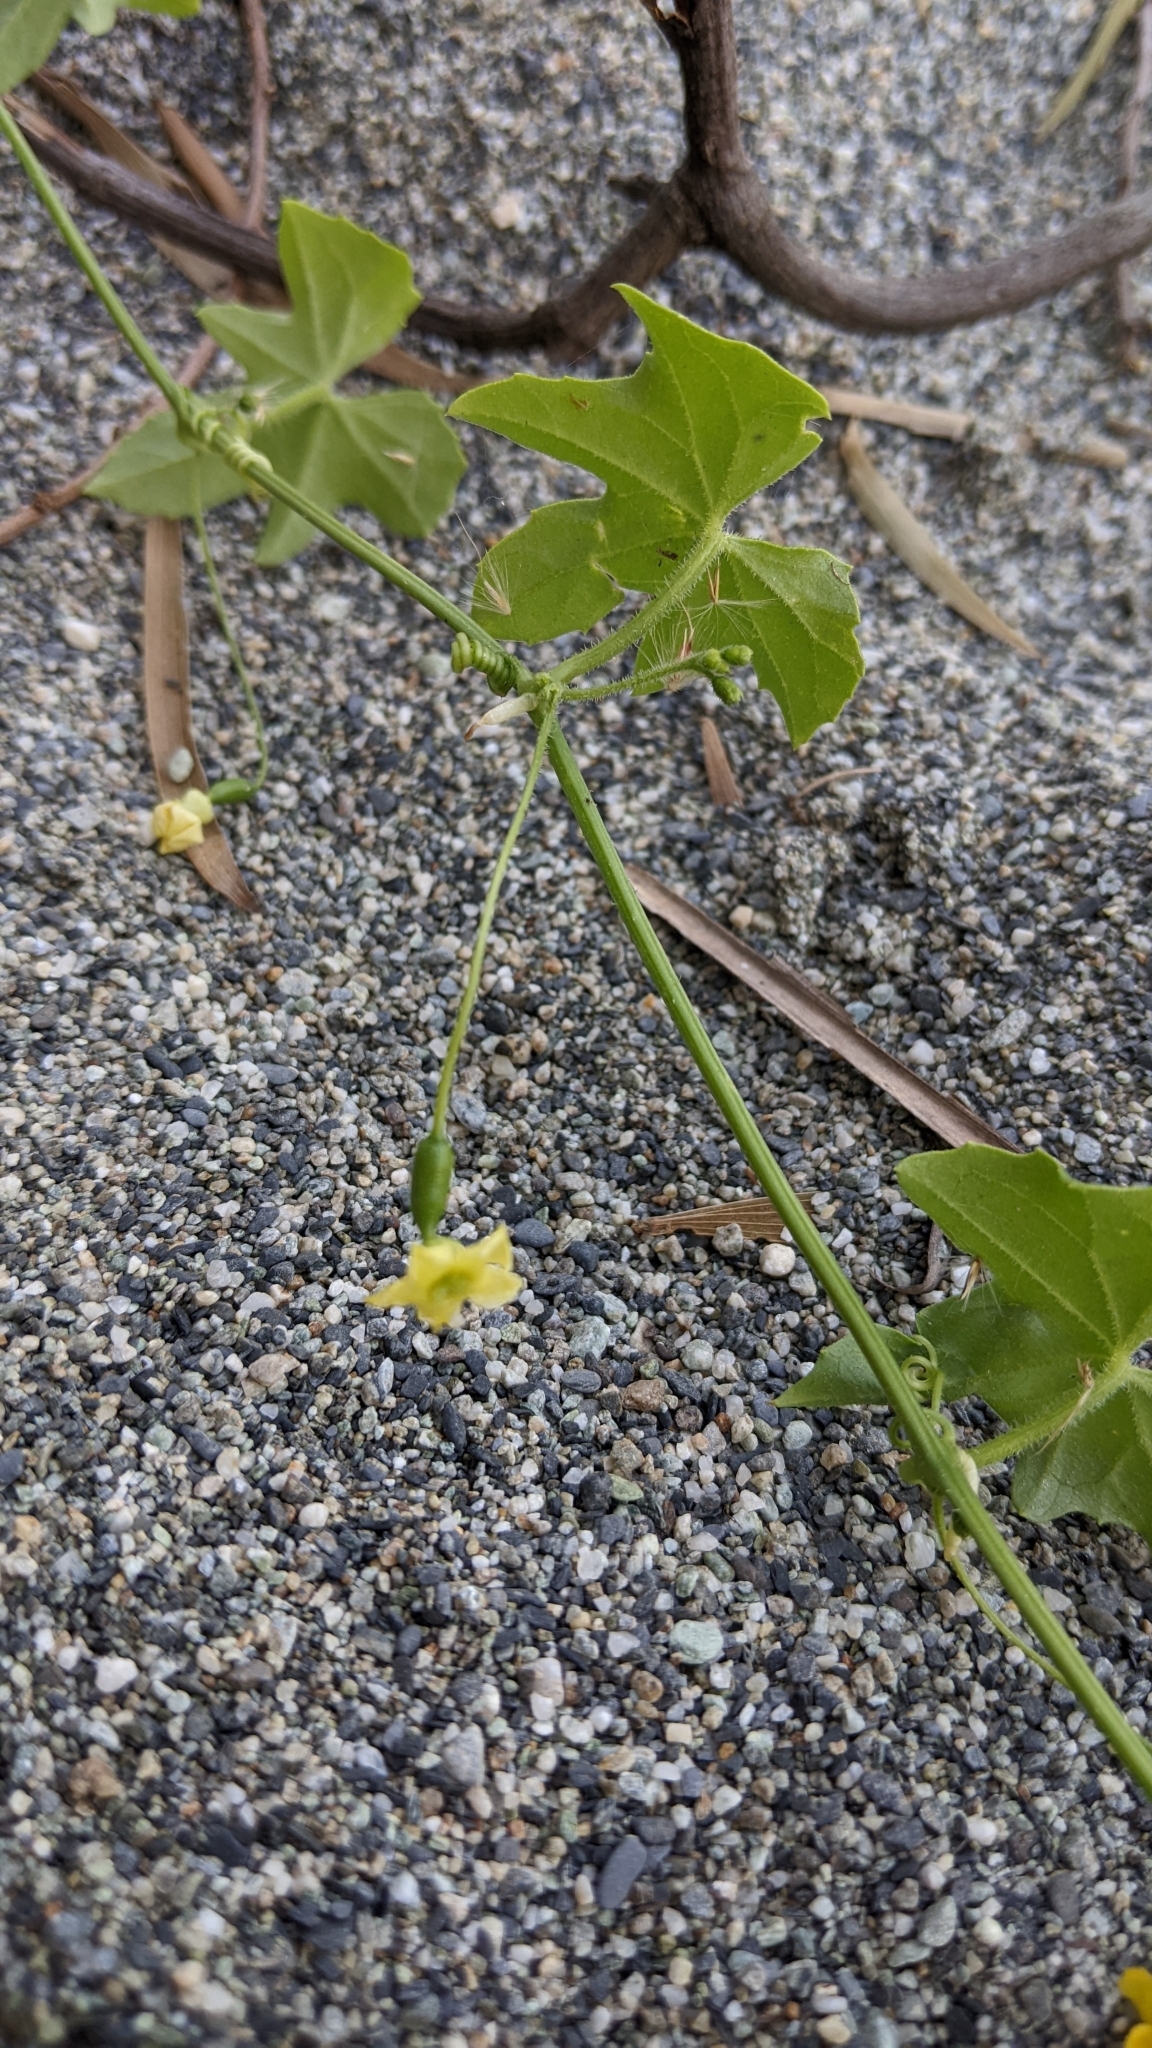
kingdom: Plantae
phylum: Tracheophyta
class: Magnoliopsida
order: Cucurbitales
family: Cucurbitaceae
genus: Melothria
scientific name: Melothria pendula
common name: Creeping-cucumber
